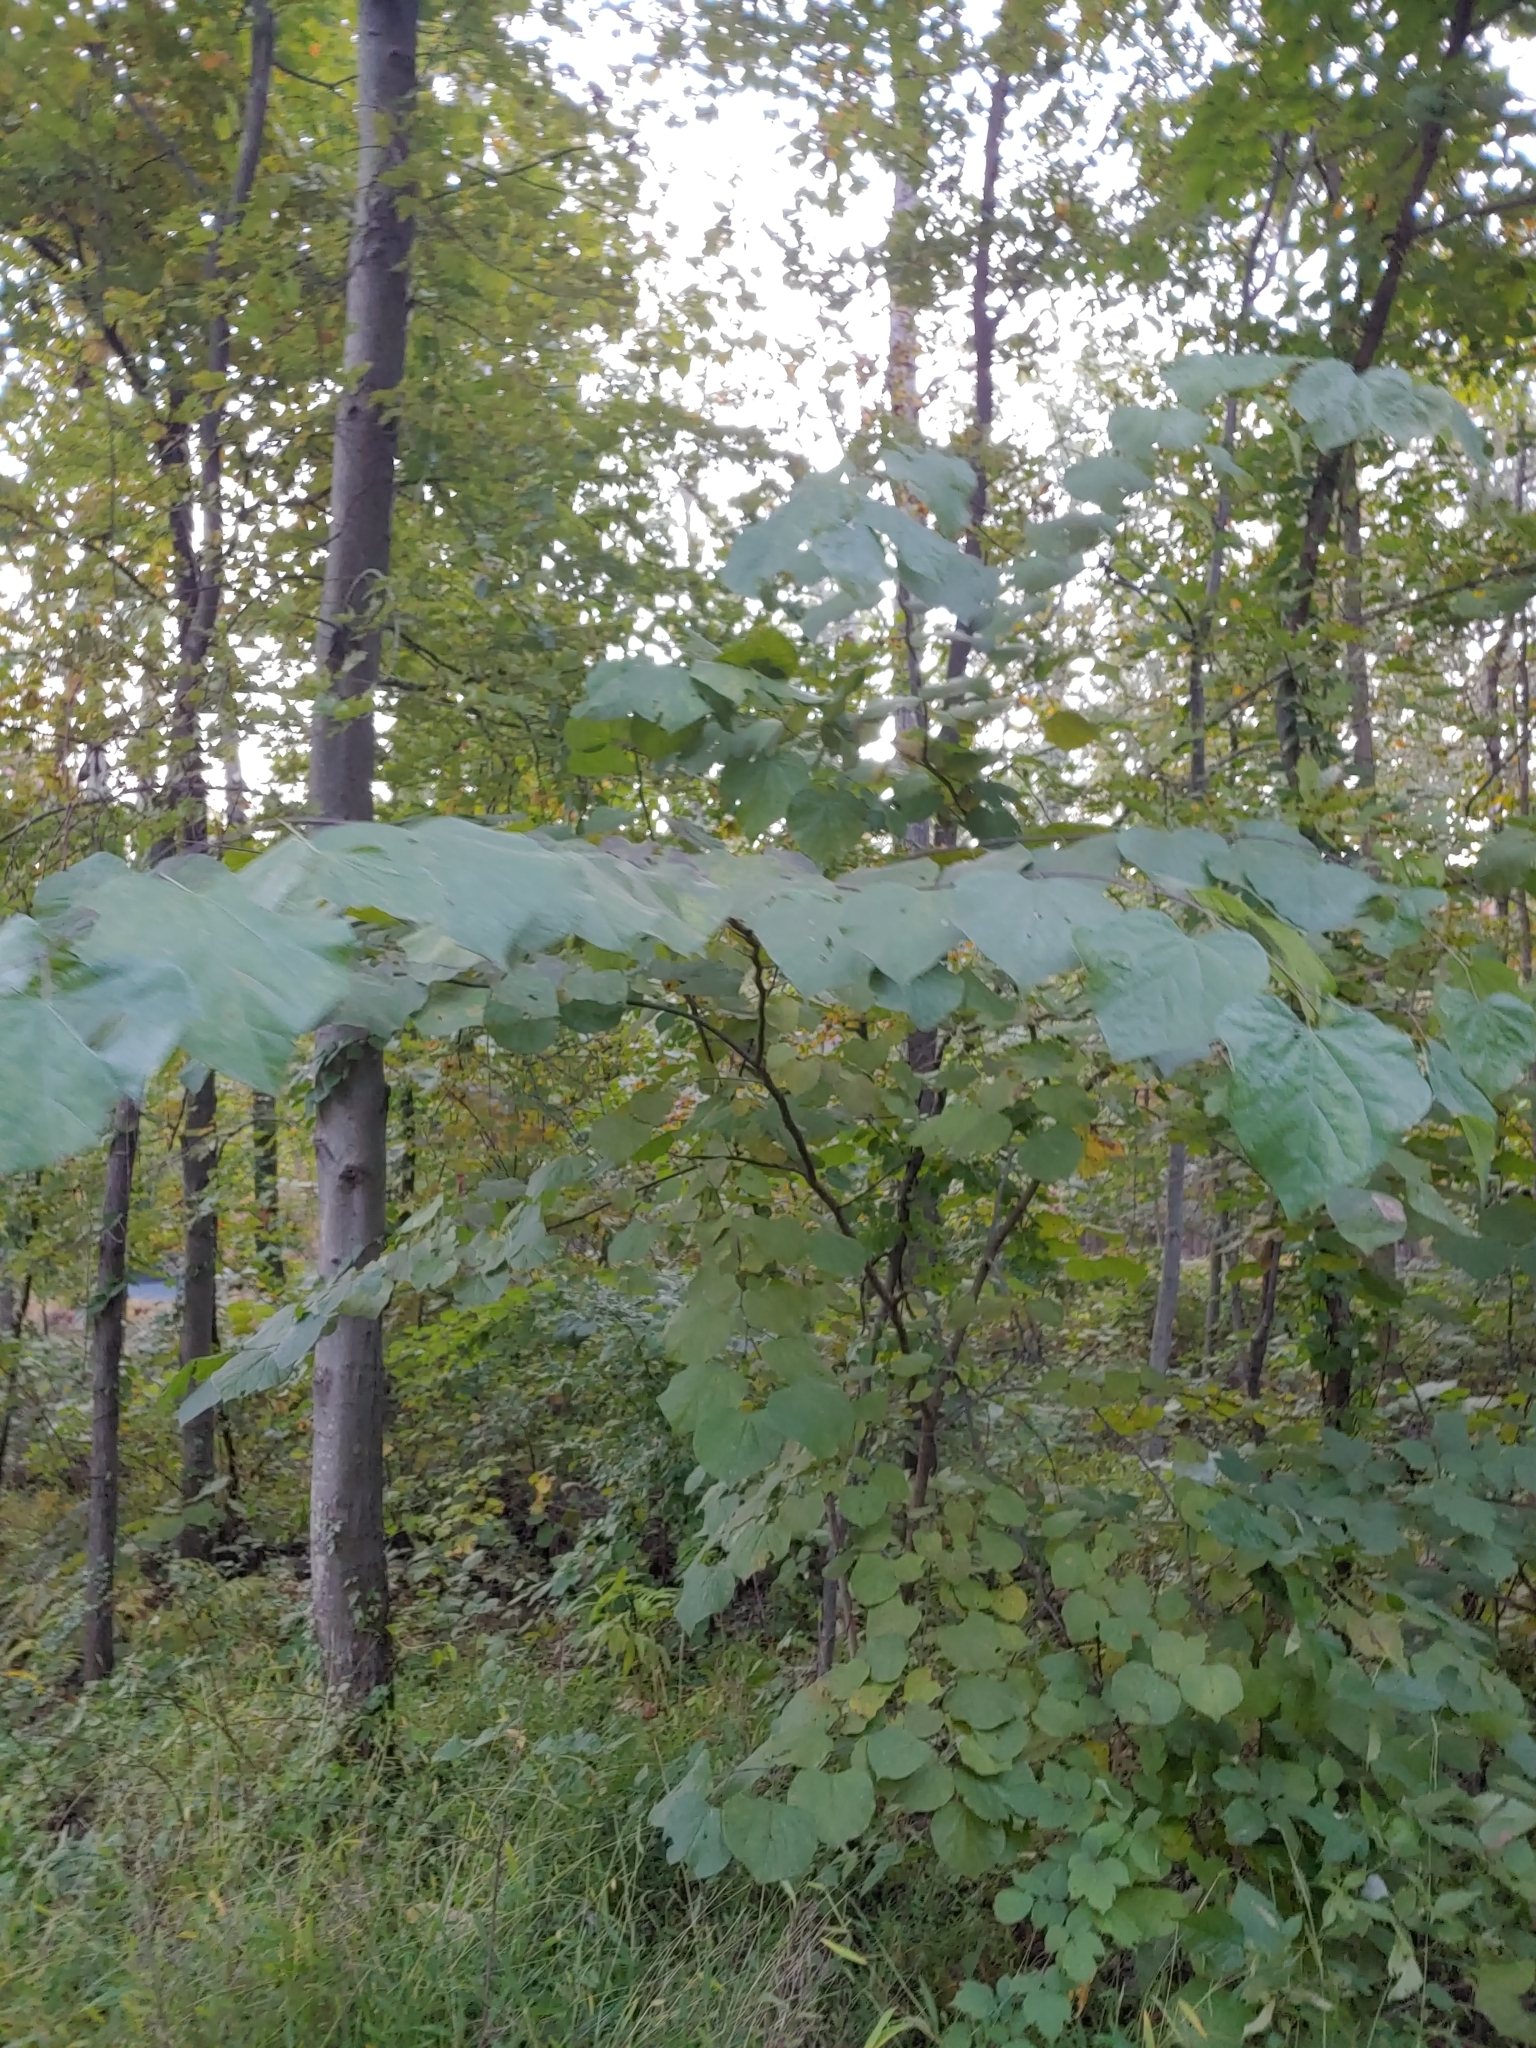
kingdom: Plantae
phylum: Tracheophyta
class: Magnoliopsida
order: Fabales
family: Fabaceae
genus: Cercis
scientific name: Cercis canadensis
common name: Eastern redbud
